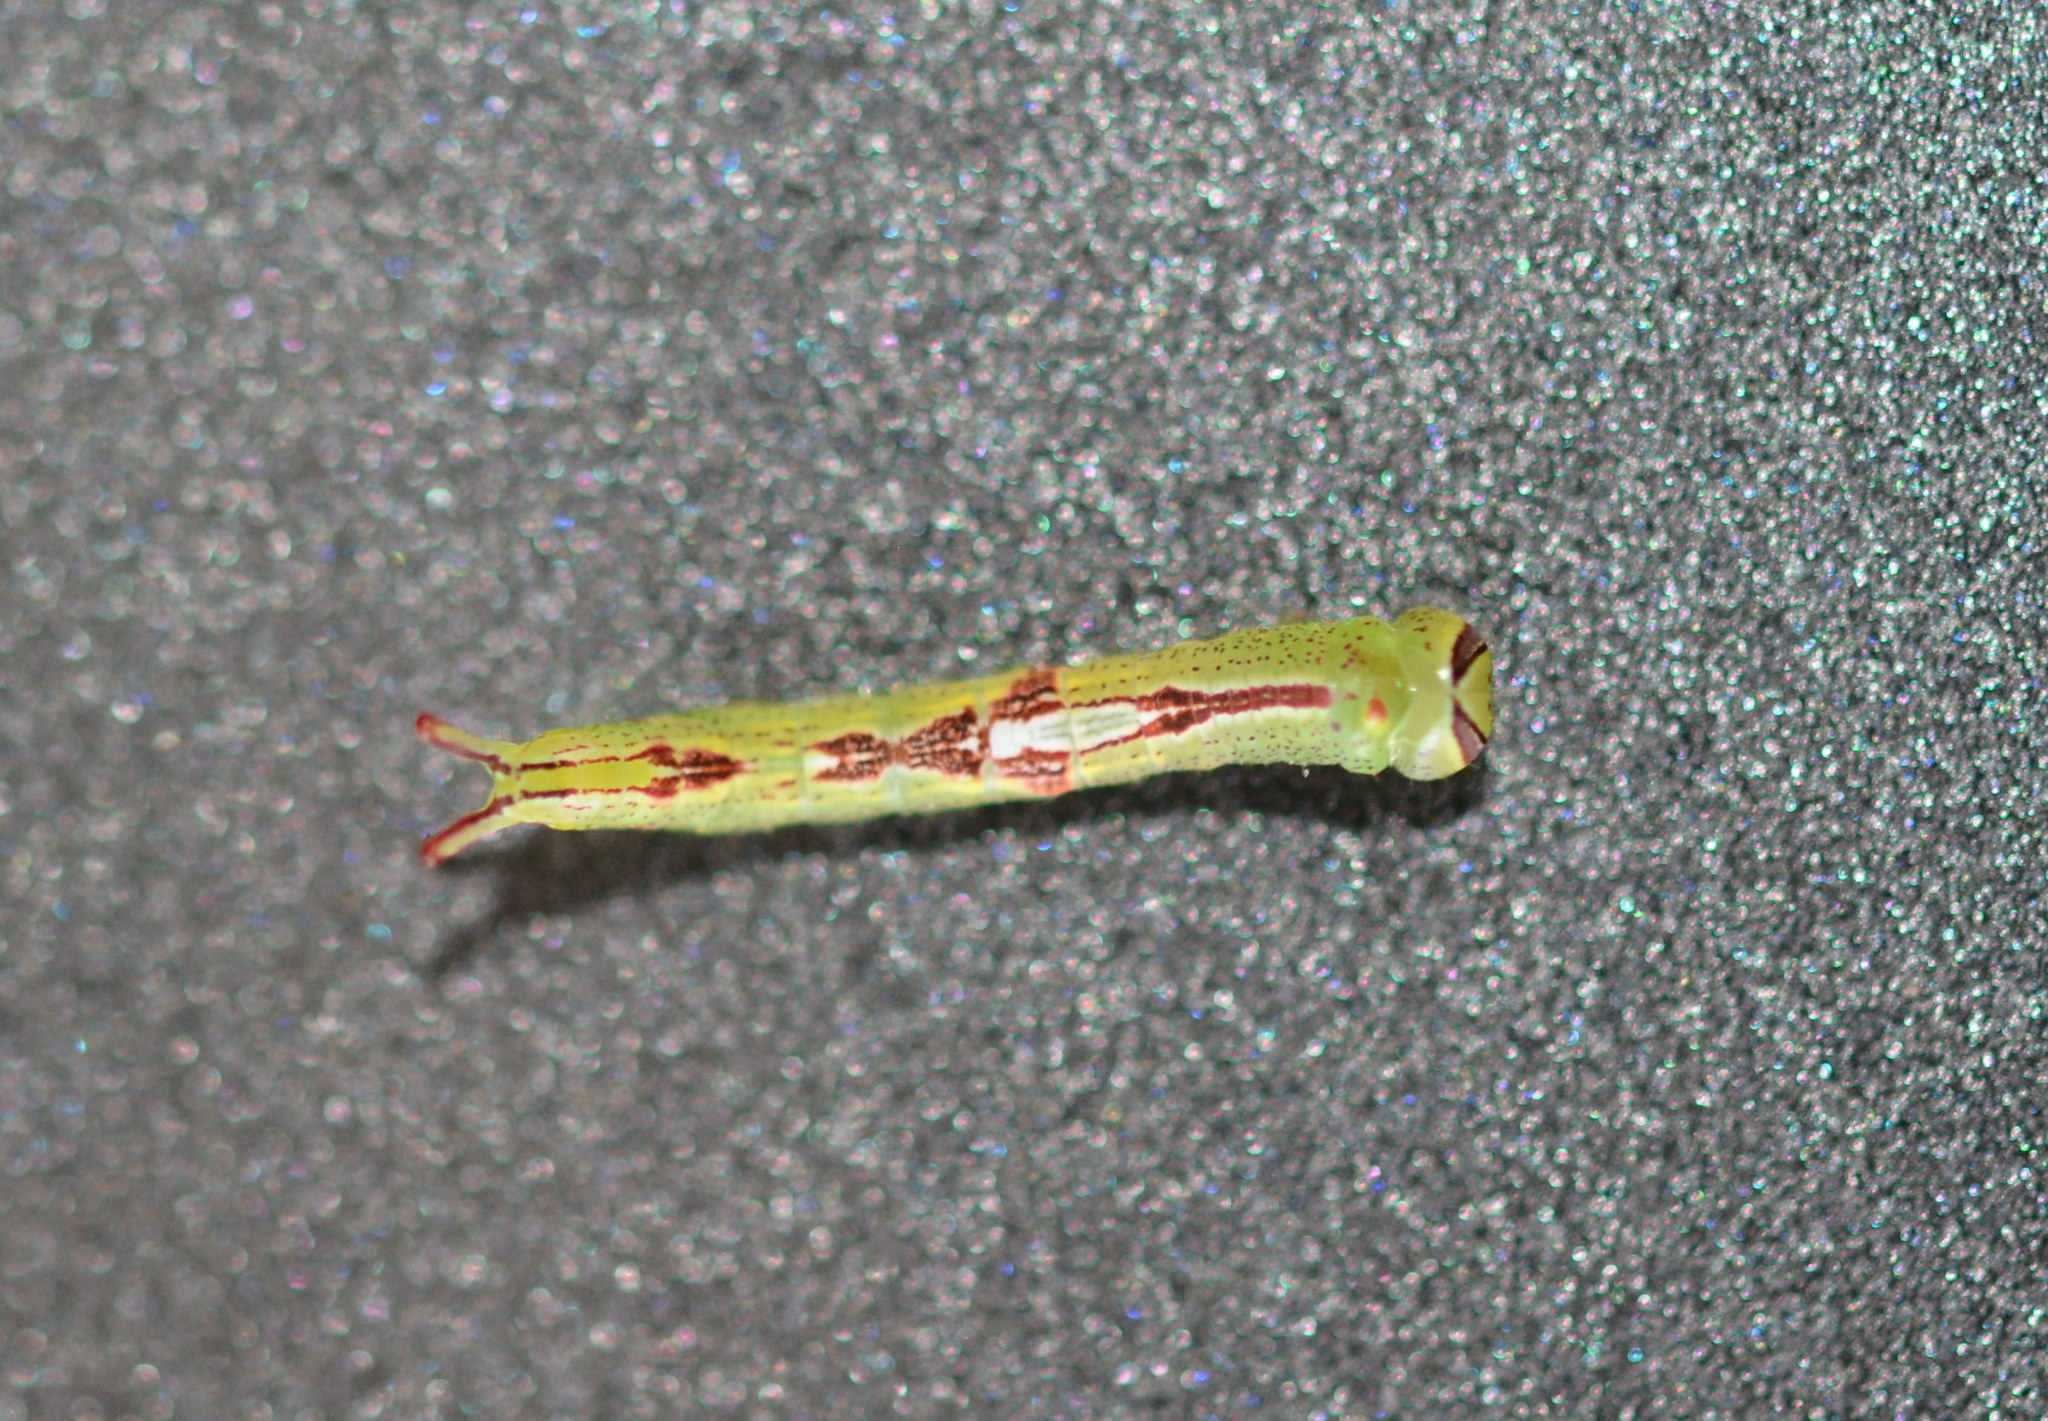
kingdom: Animalia
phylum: Arthropoda
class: Insecta
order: Lepidoptera
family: Notodontidae
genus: Disphragis
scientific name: Disphragis Cecrita guttivitta
